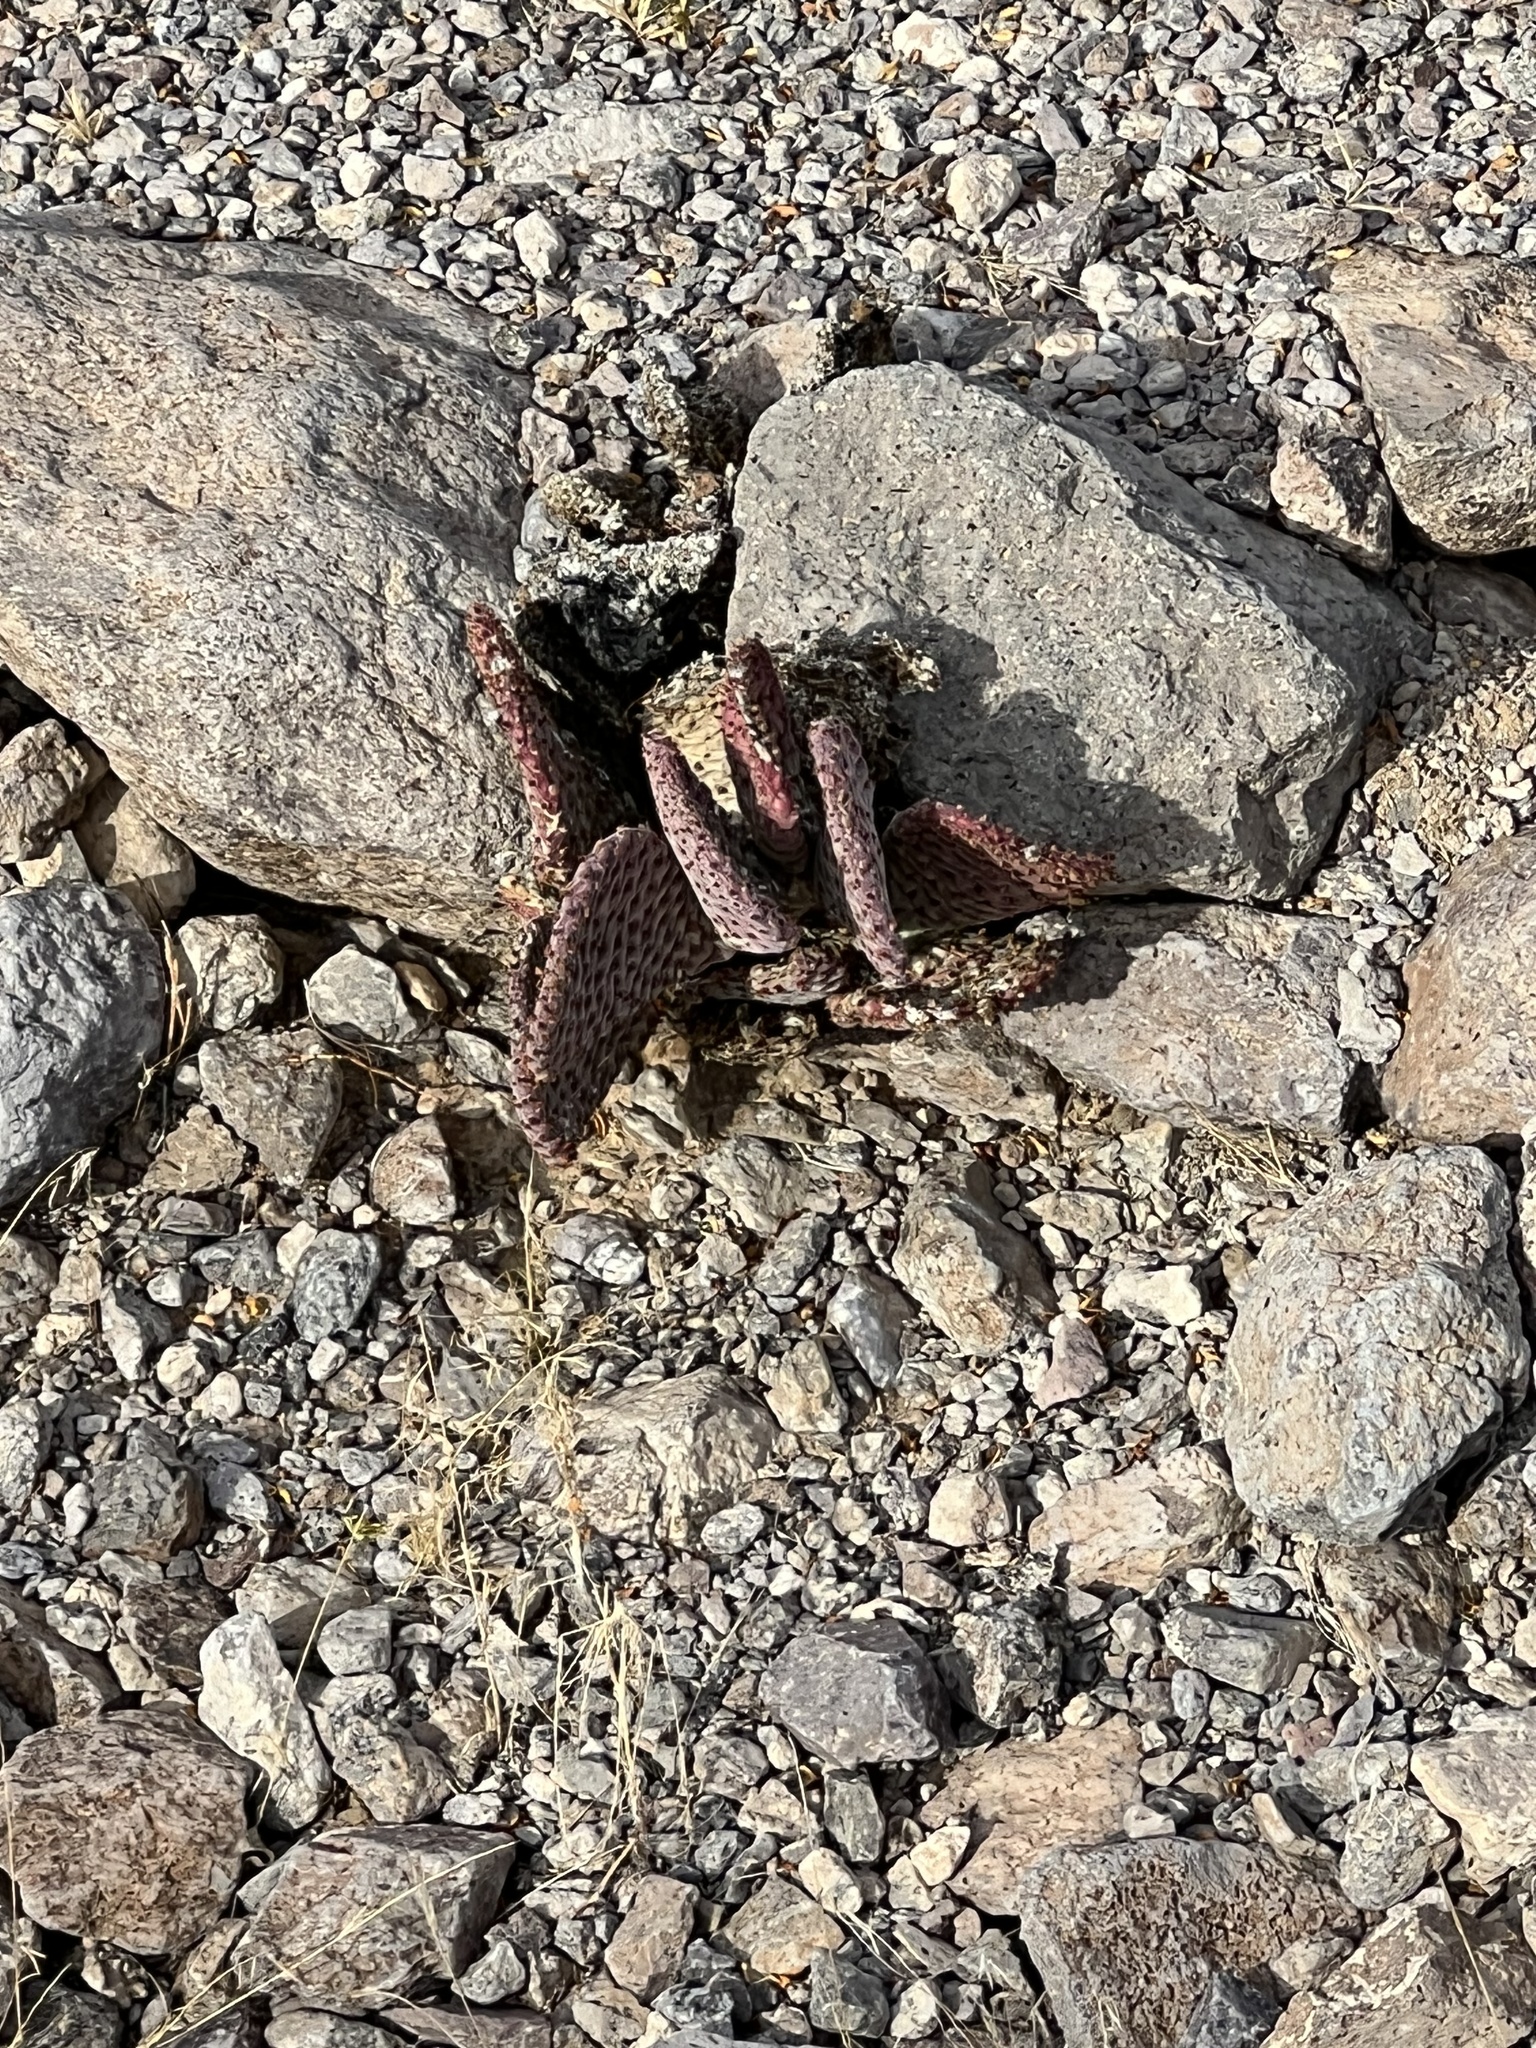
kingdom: Plantae
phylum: Tracheophyta
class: Magnoliopsida
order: Caryophyllales
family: Cactaceae
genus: Opuntia
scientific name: Opuntia basilaris
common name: Beavertail prickly-pear
